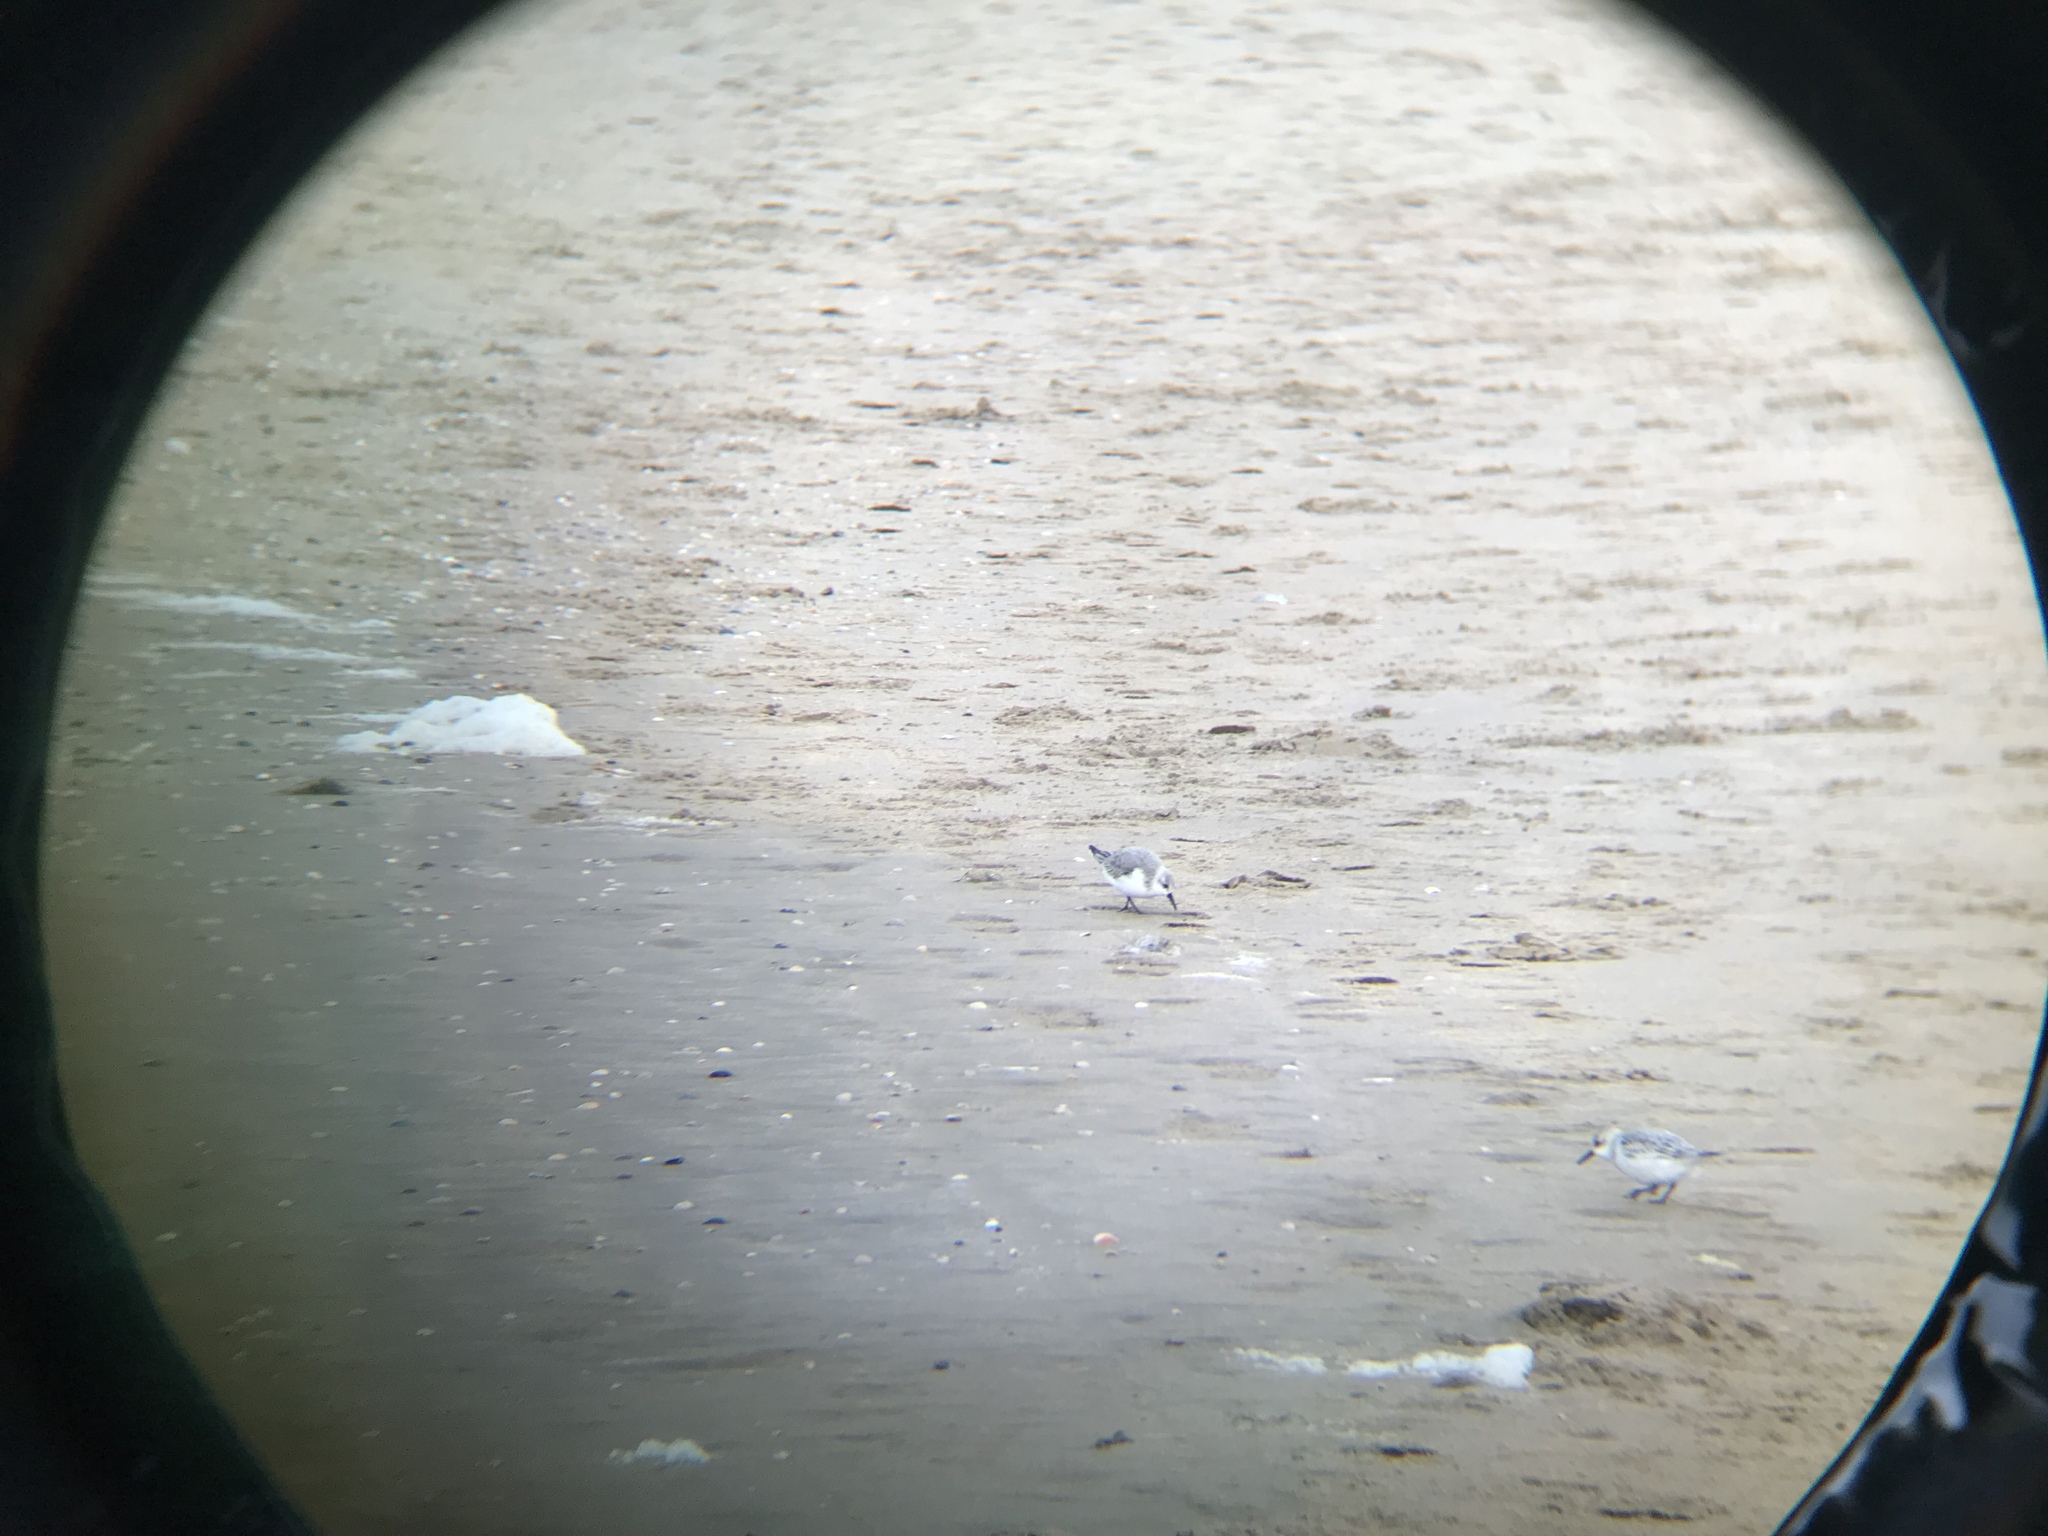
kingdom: Animalia
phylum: Chordata
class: Aves
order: Charadriiformes
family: Scolopacidae
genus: Calidris
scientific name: Calidris alba
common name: Sanderling
